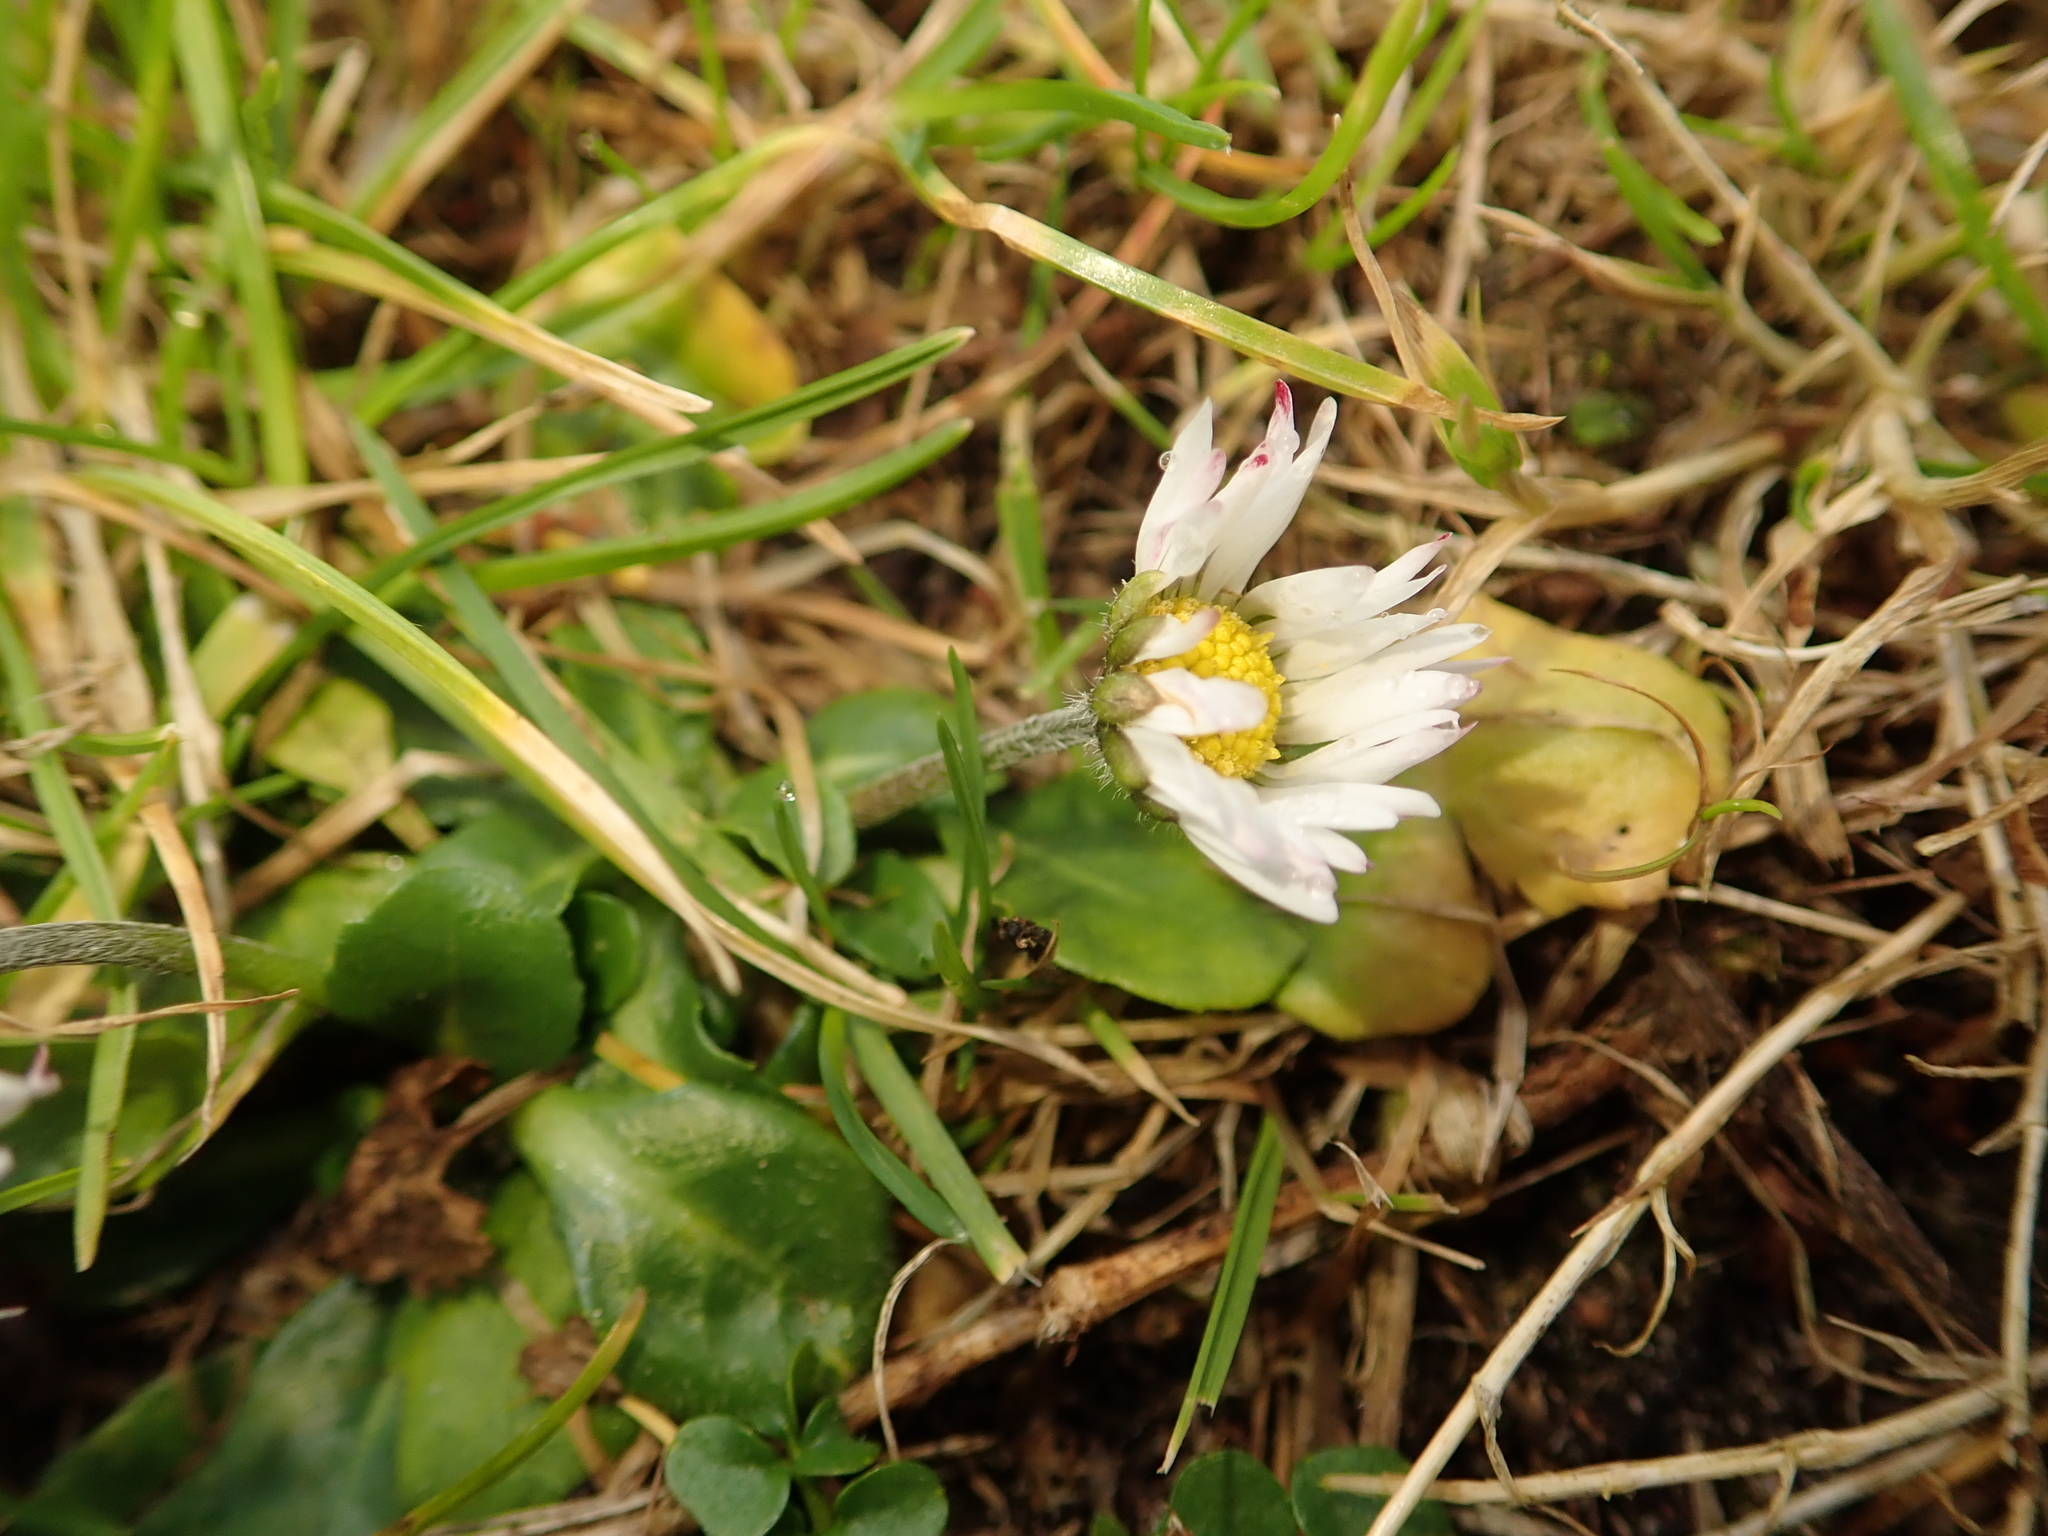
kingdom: Plantae
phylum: Tracheophyta
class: Magnoliopsida
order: Asterales
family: Asteraceae
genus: Bellis
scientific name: Bellis perennis
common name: Lawndaisy
